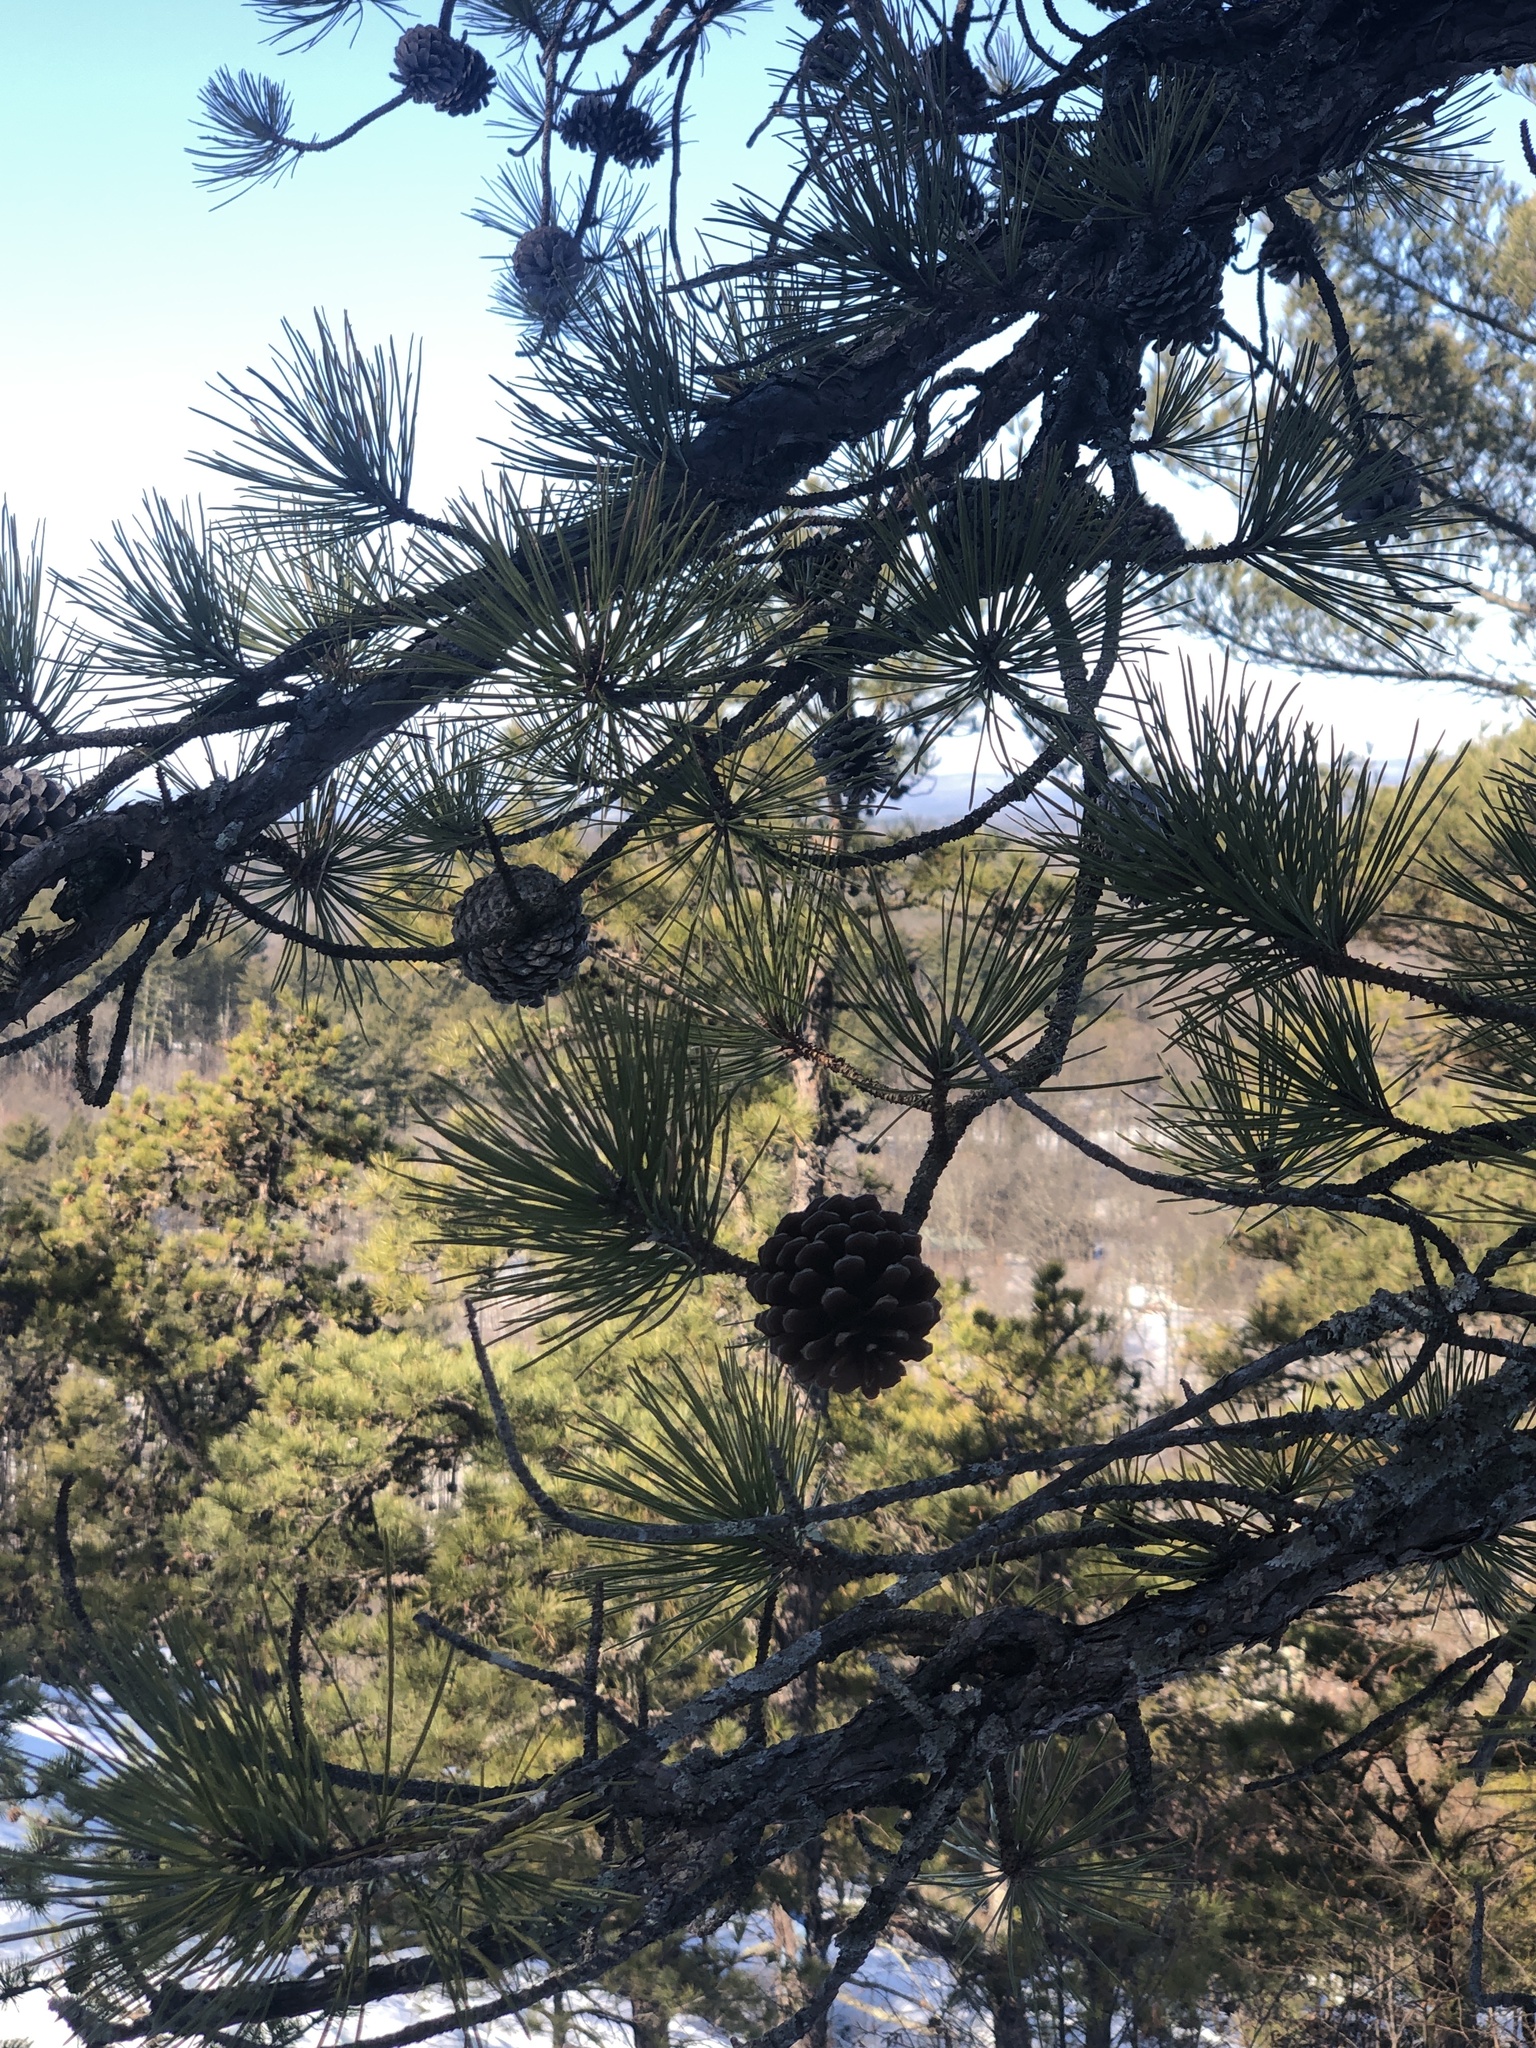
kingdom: Plantae
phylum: Tracheophyta
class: Pinopsida
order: Pinales
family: Pinaceae
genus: Pinus
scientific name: Pinus rigida
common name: Pitch pine
